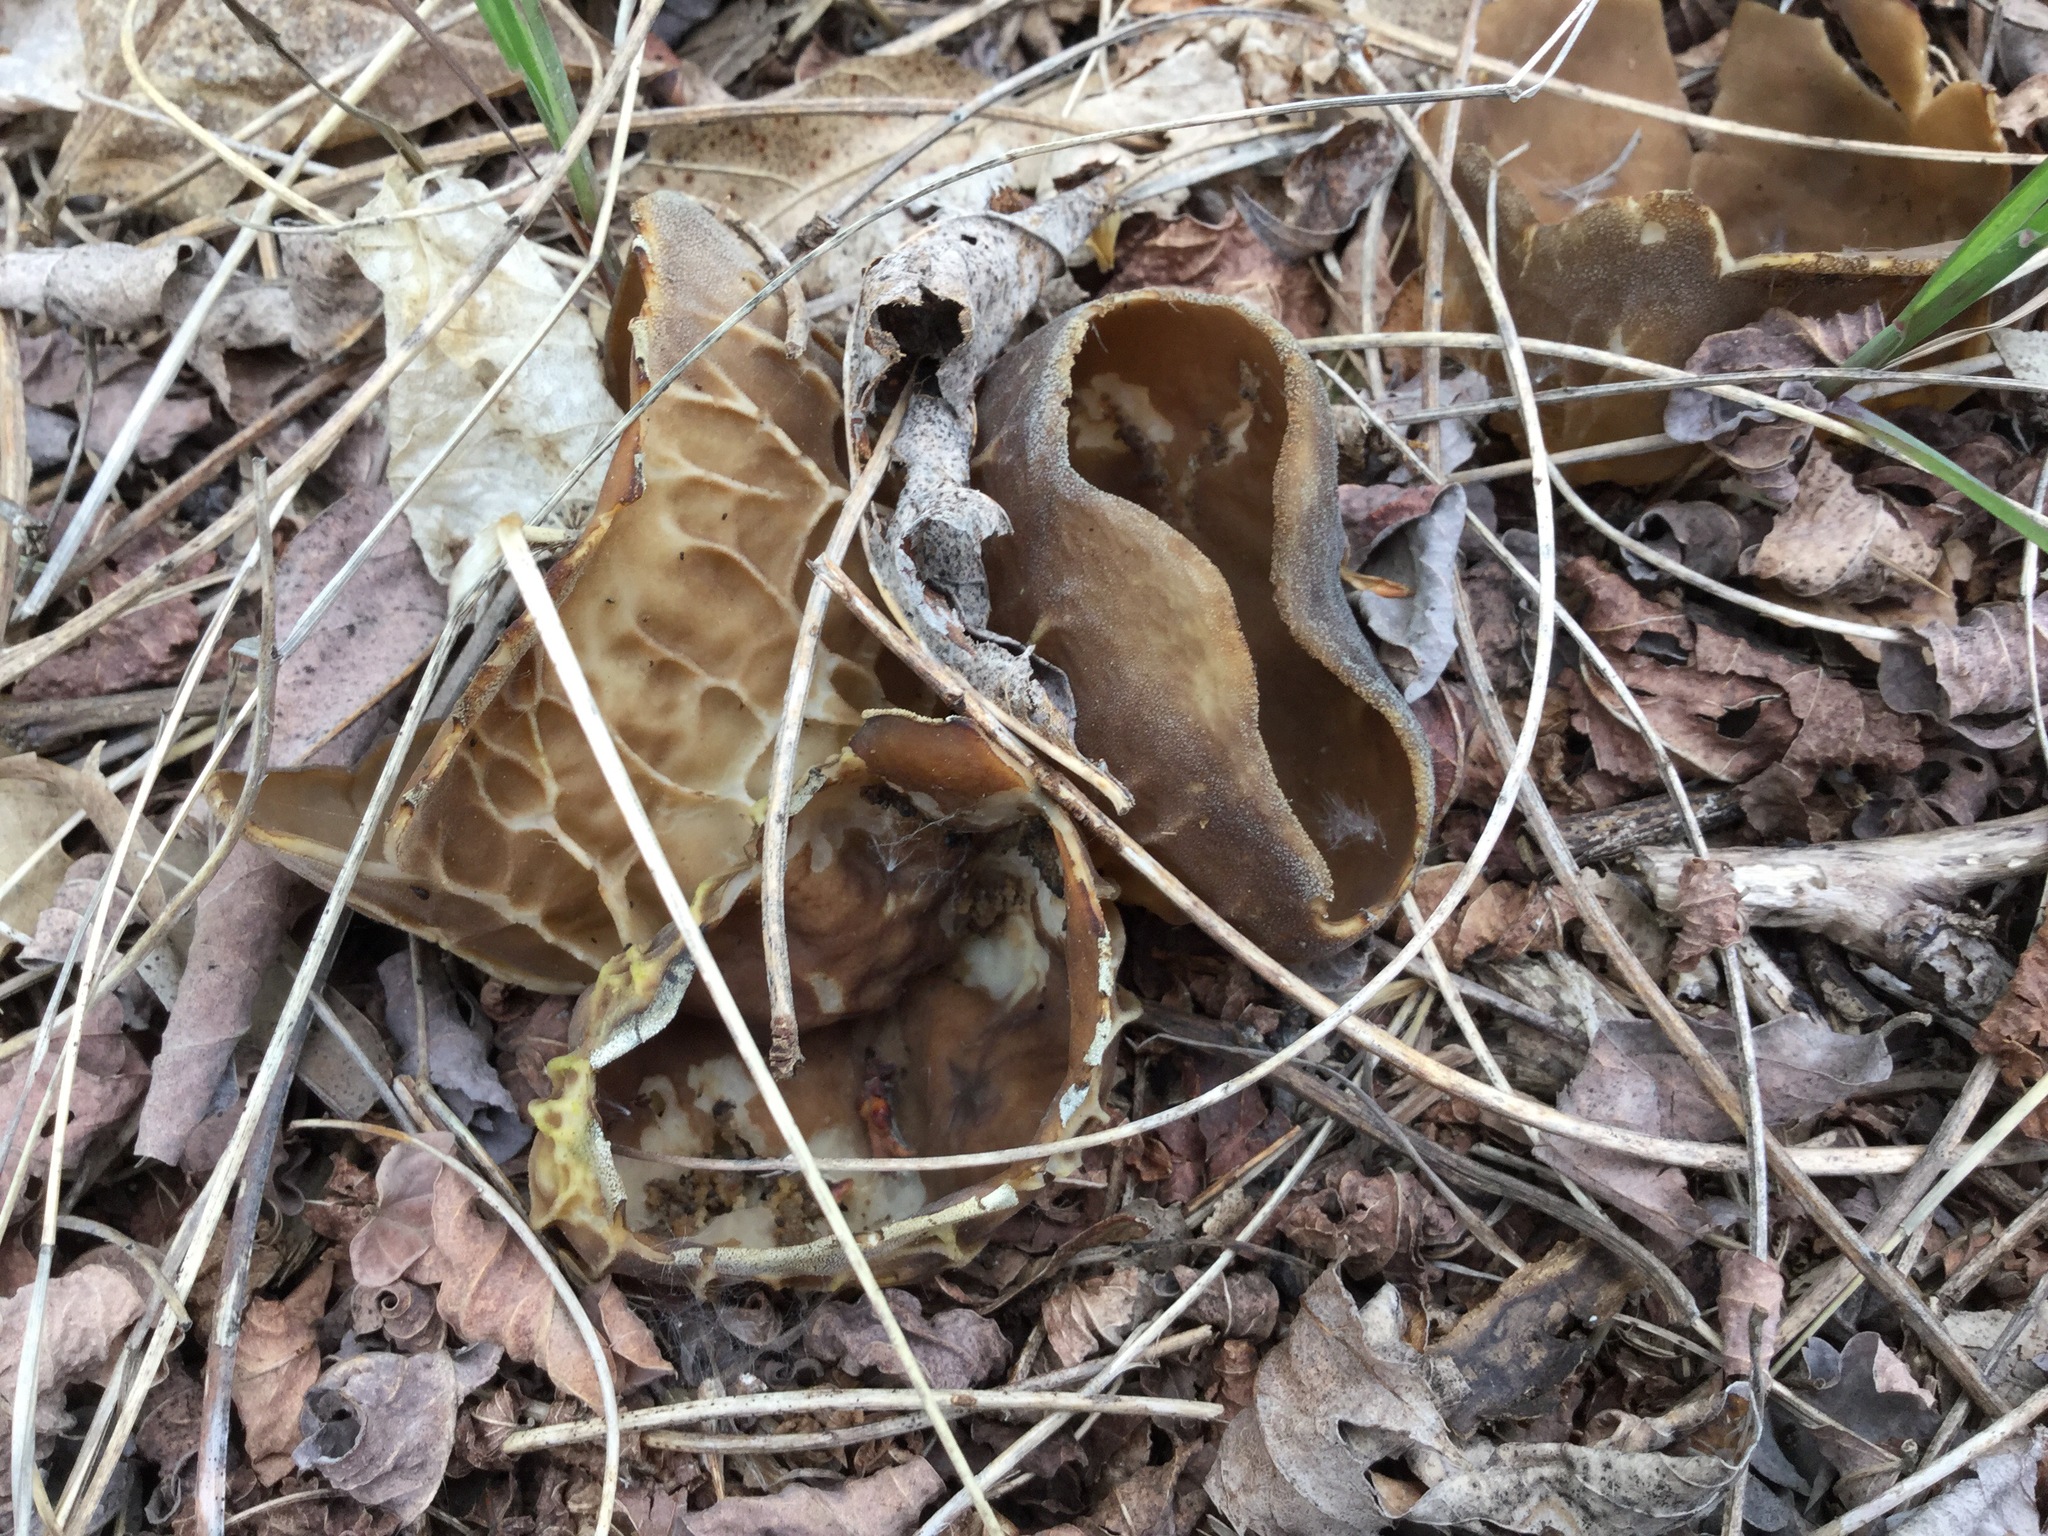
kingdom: Fungi
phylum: Ascomycota
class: Pezizomycetes
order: Pezizales
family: Helvellaceae
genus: Helvella
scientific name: Helvella acetabulum
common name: Vinegar cup
